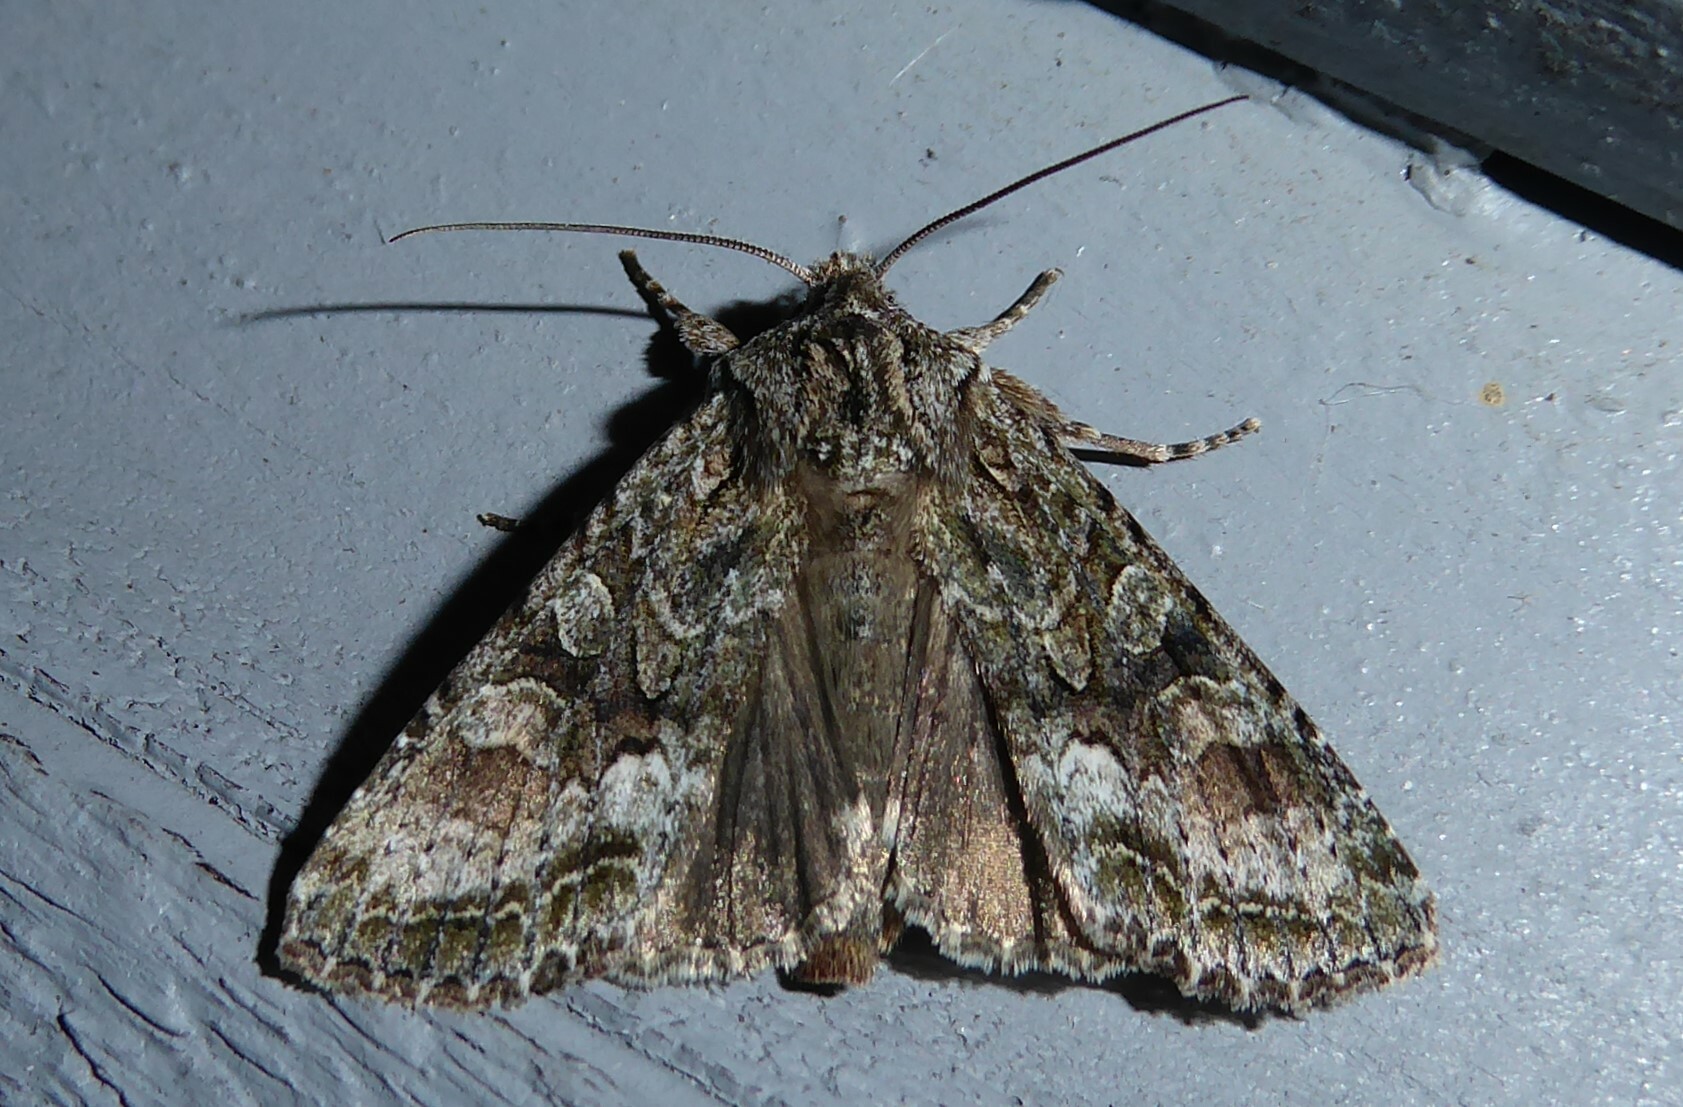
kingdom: Animalia
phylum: Arthropoda
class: Insecta
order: Lepidoptera
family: Noctuidae
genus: Ichneutica
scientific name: Ichneutica mutans
